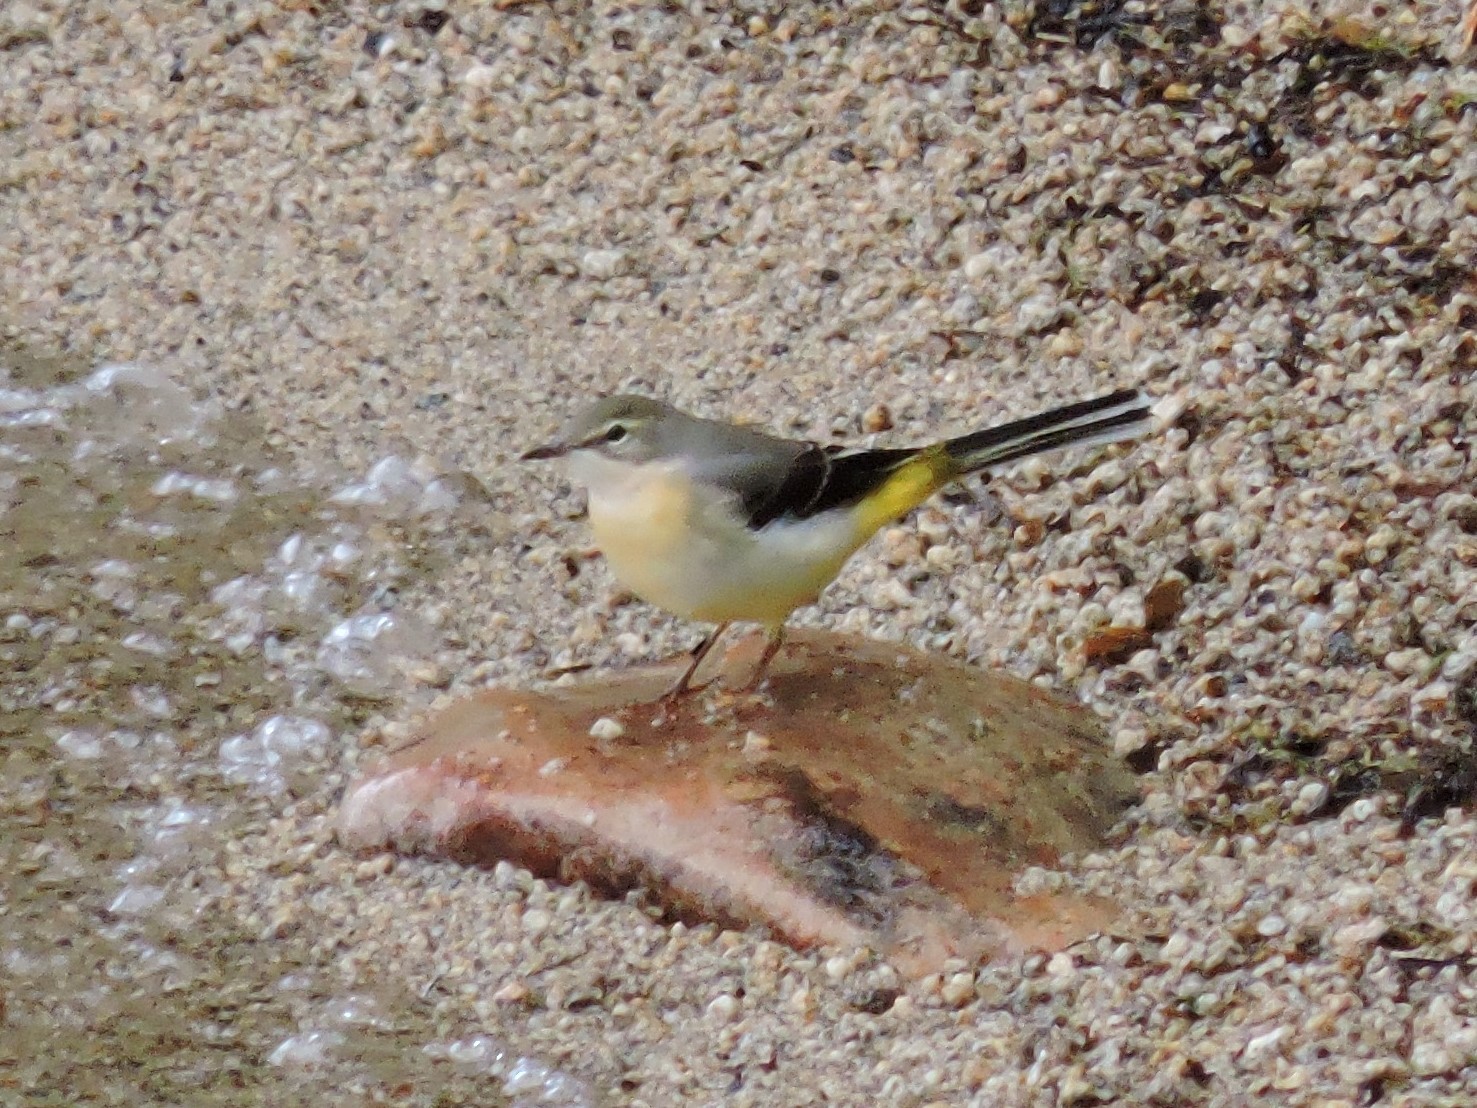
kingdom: Animalia
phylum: Chordata
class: Aves
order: Passeriformes
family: Motacillidae
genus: Motacilla
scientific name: Motacilla cinerea
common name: Grey wagtail
